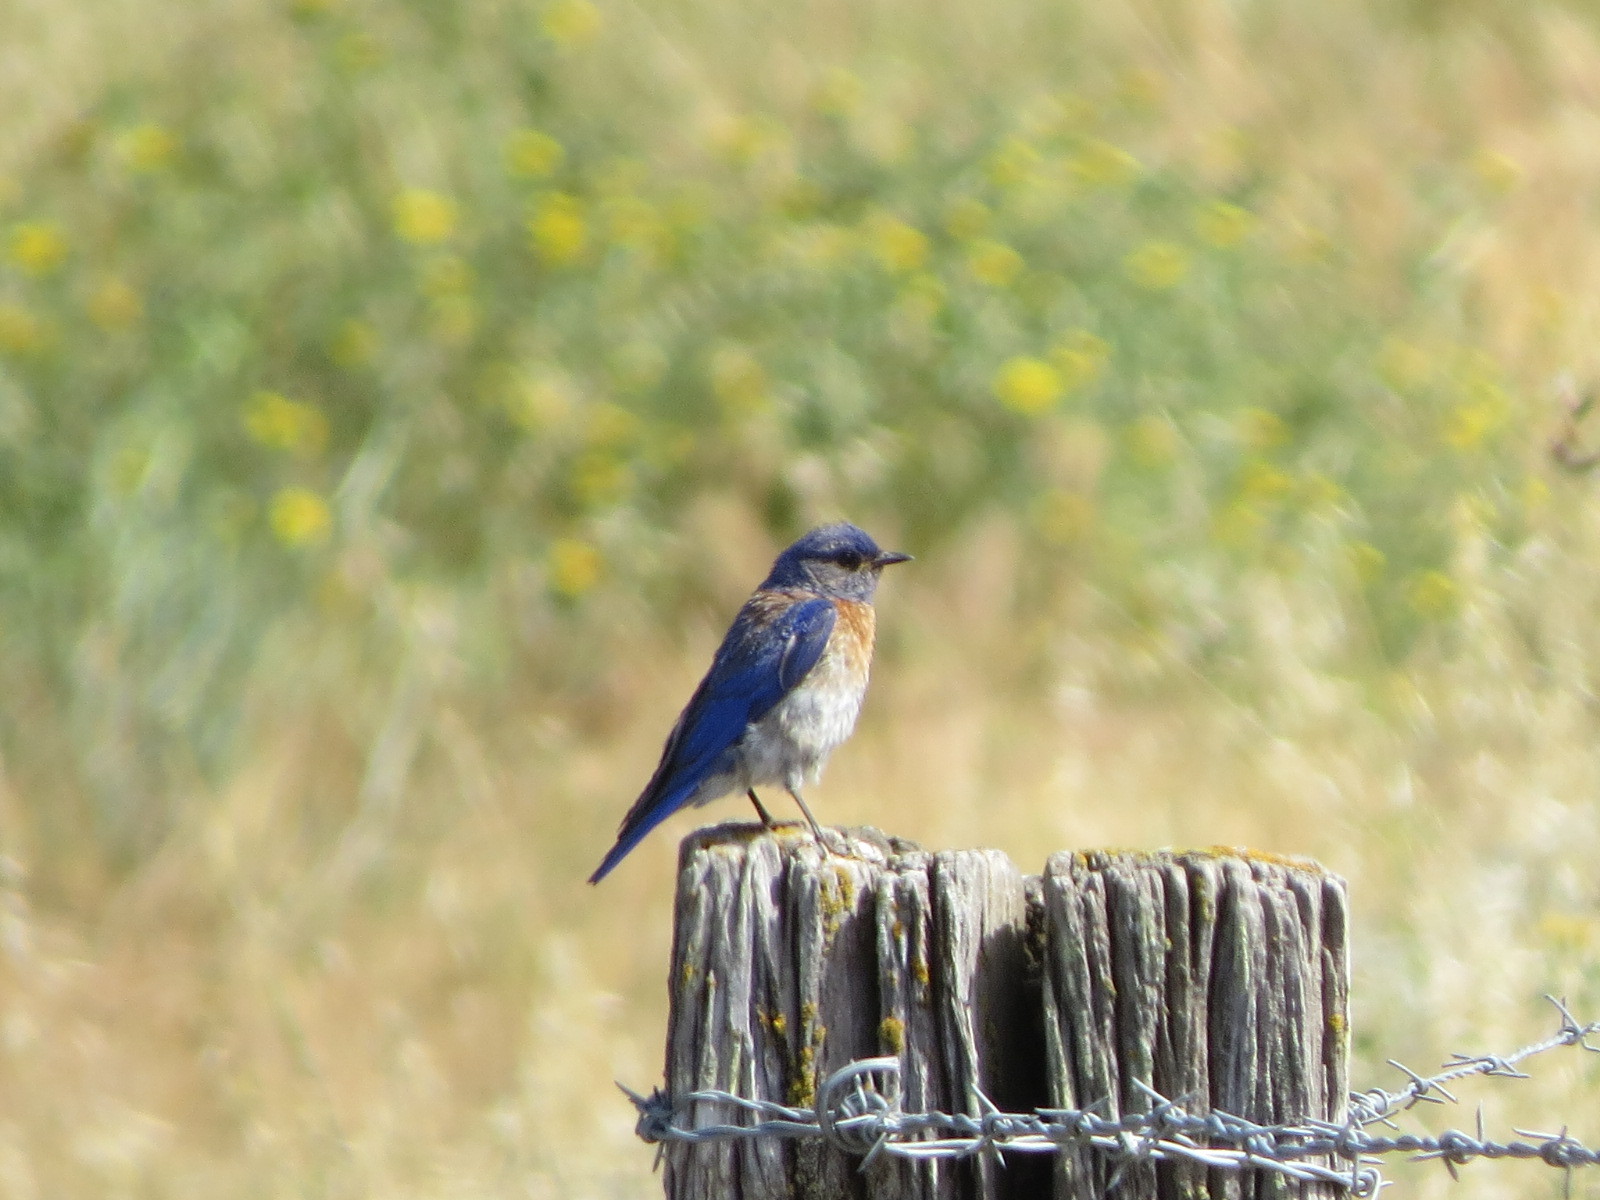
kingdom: Animalia
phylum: Chordata
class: Aves
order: Passeriformes
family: Turdidae
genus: Sialia
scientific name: Sialia mexicana
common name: Western bluebird
